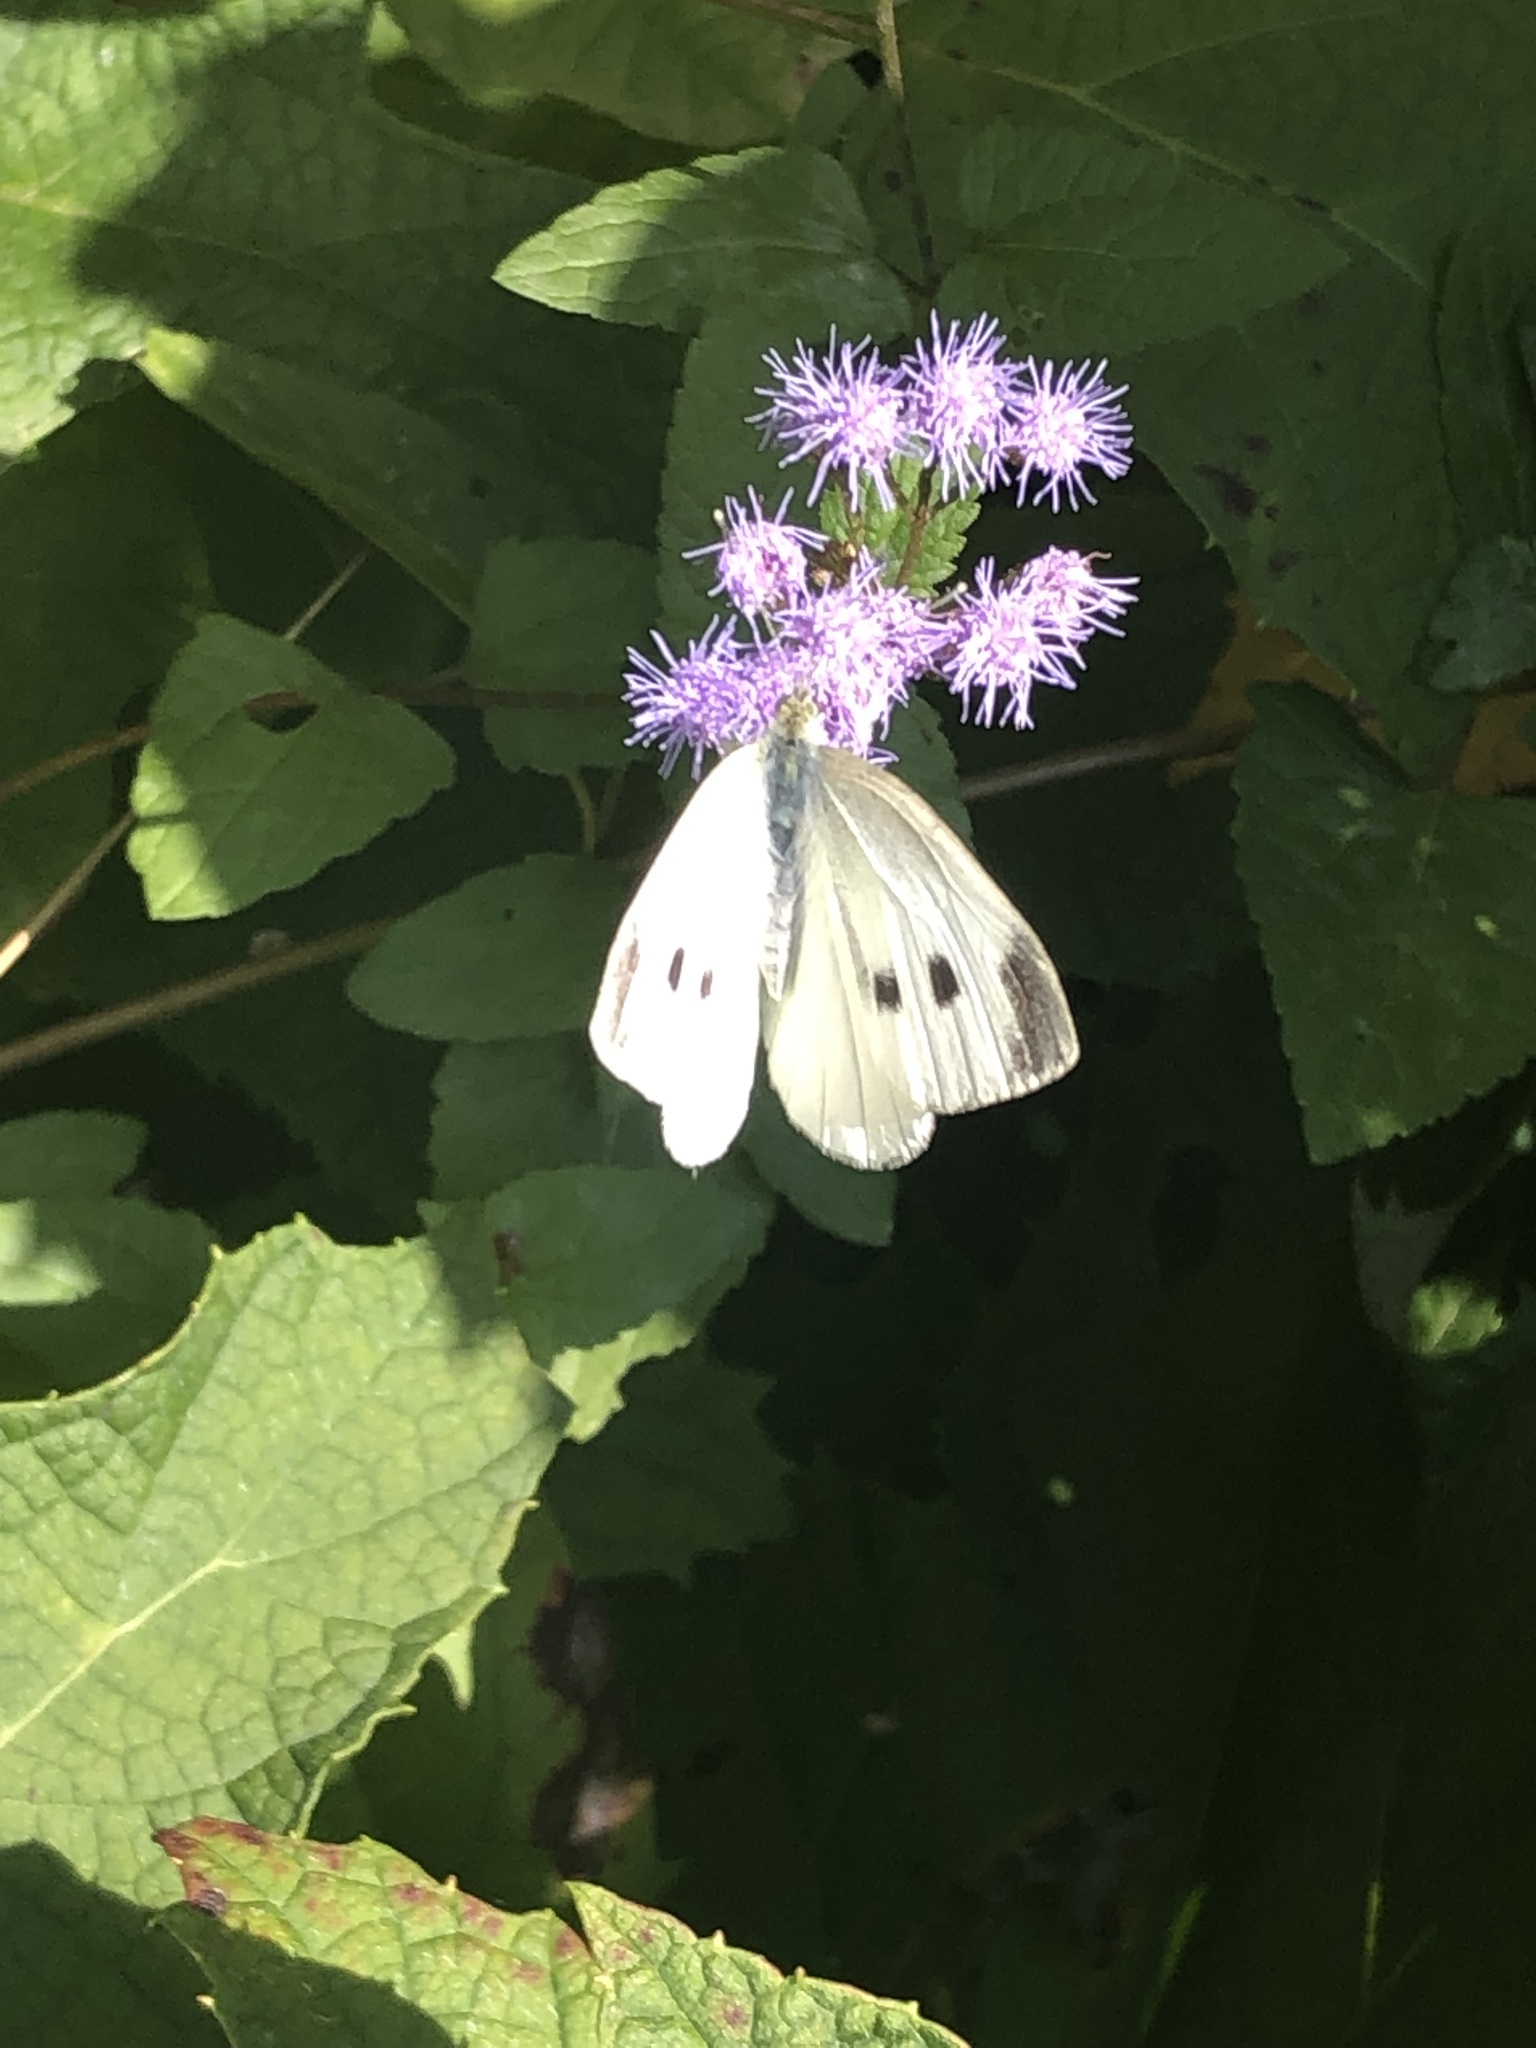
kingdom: Animalia
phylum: Arthropoda
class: Insecta
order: Lepidoptera
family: Pieridae
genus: Pieris
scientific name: Pieris rapae
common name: Small white
